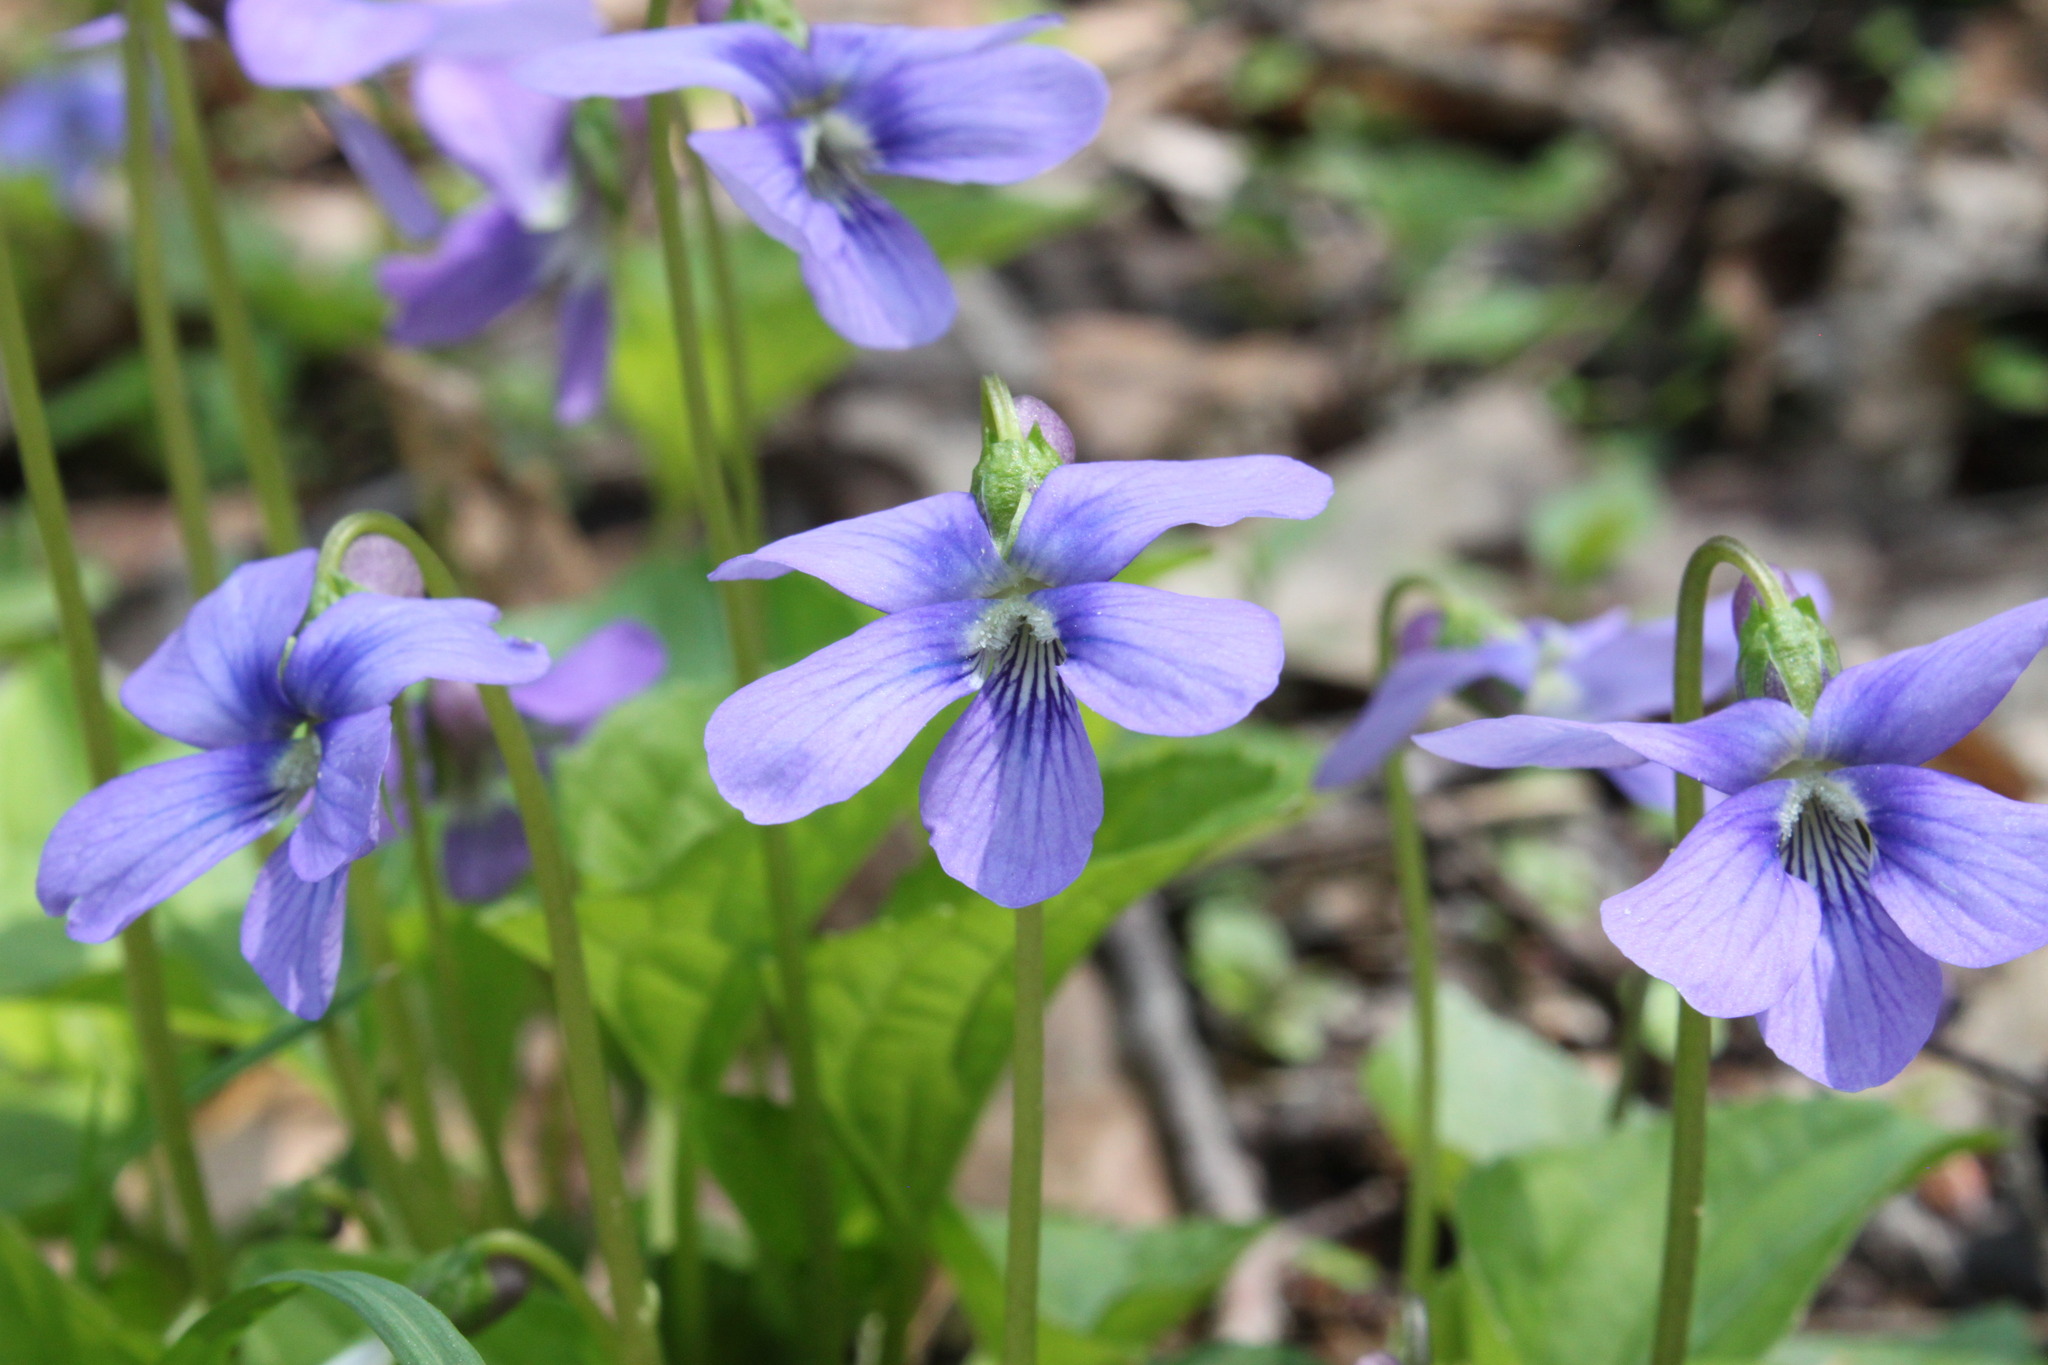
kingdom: Plantae
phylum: Tracheophyta
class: Magnoliopsida
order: Malpighiales
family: Violaceae
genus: Viola
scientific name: Viola sororia
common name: Dooryard violet
